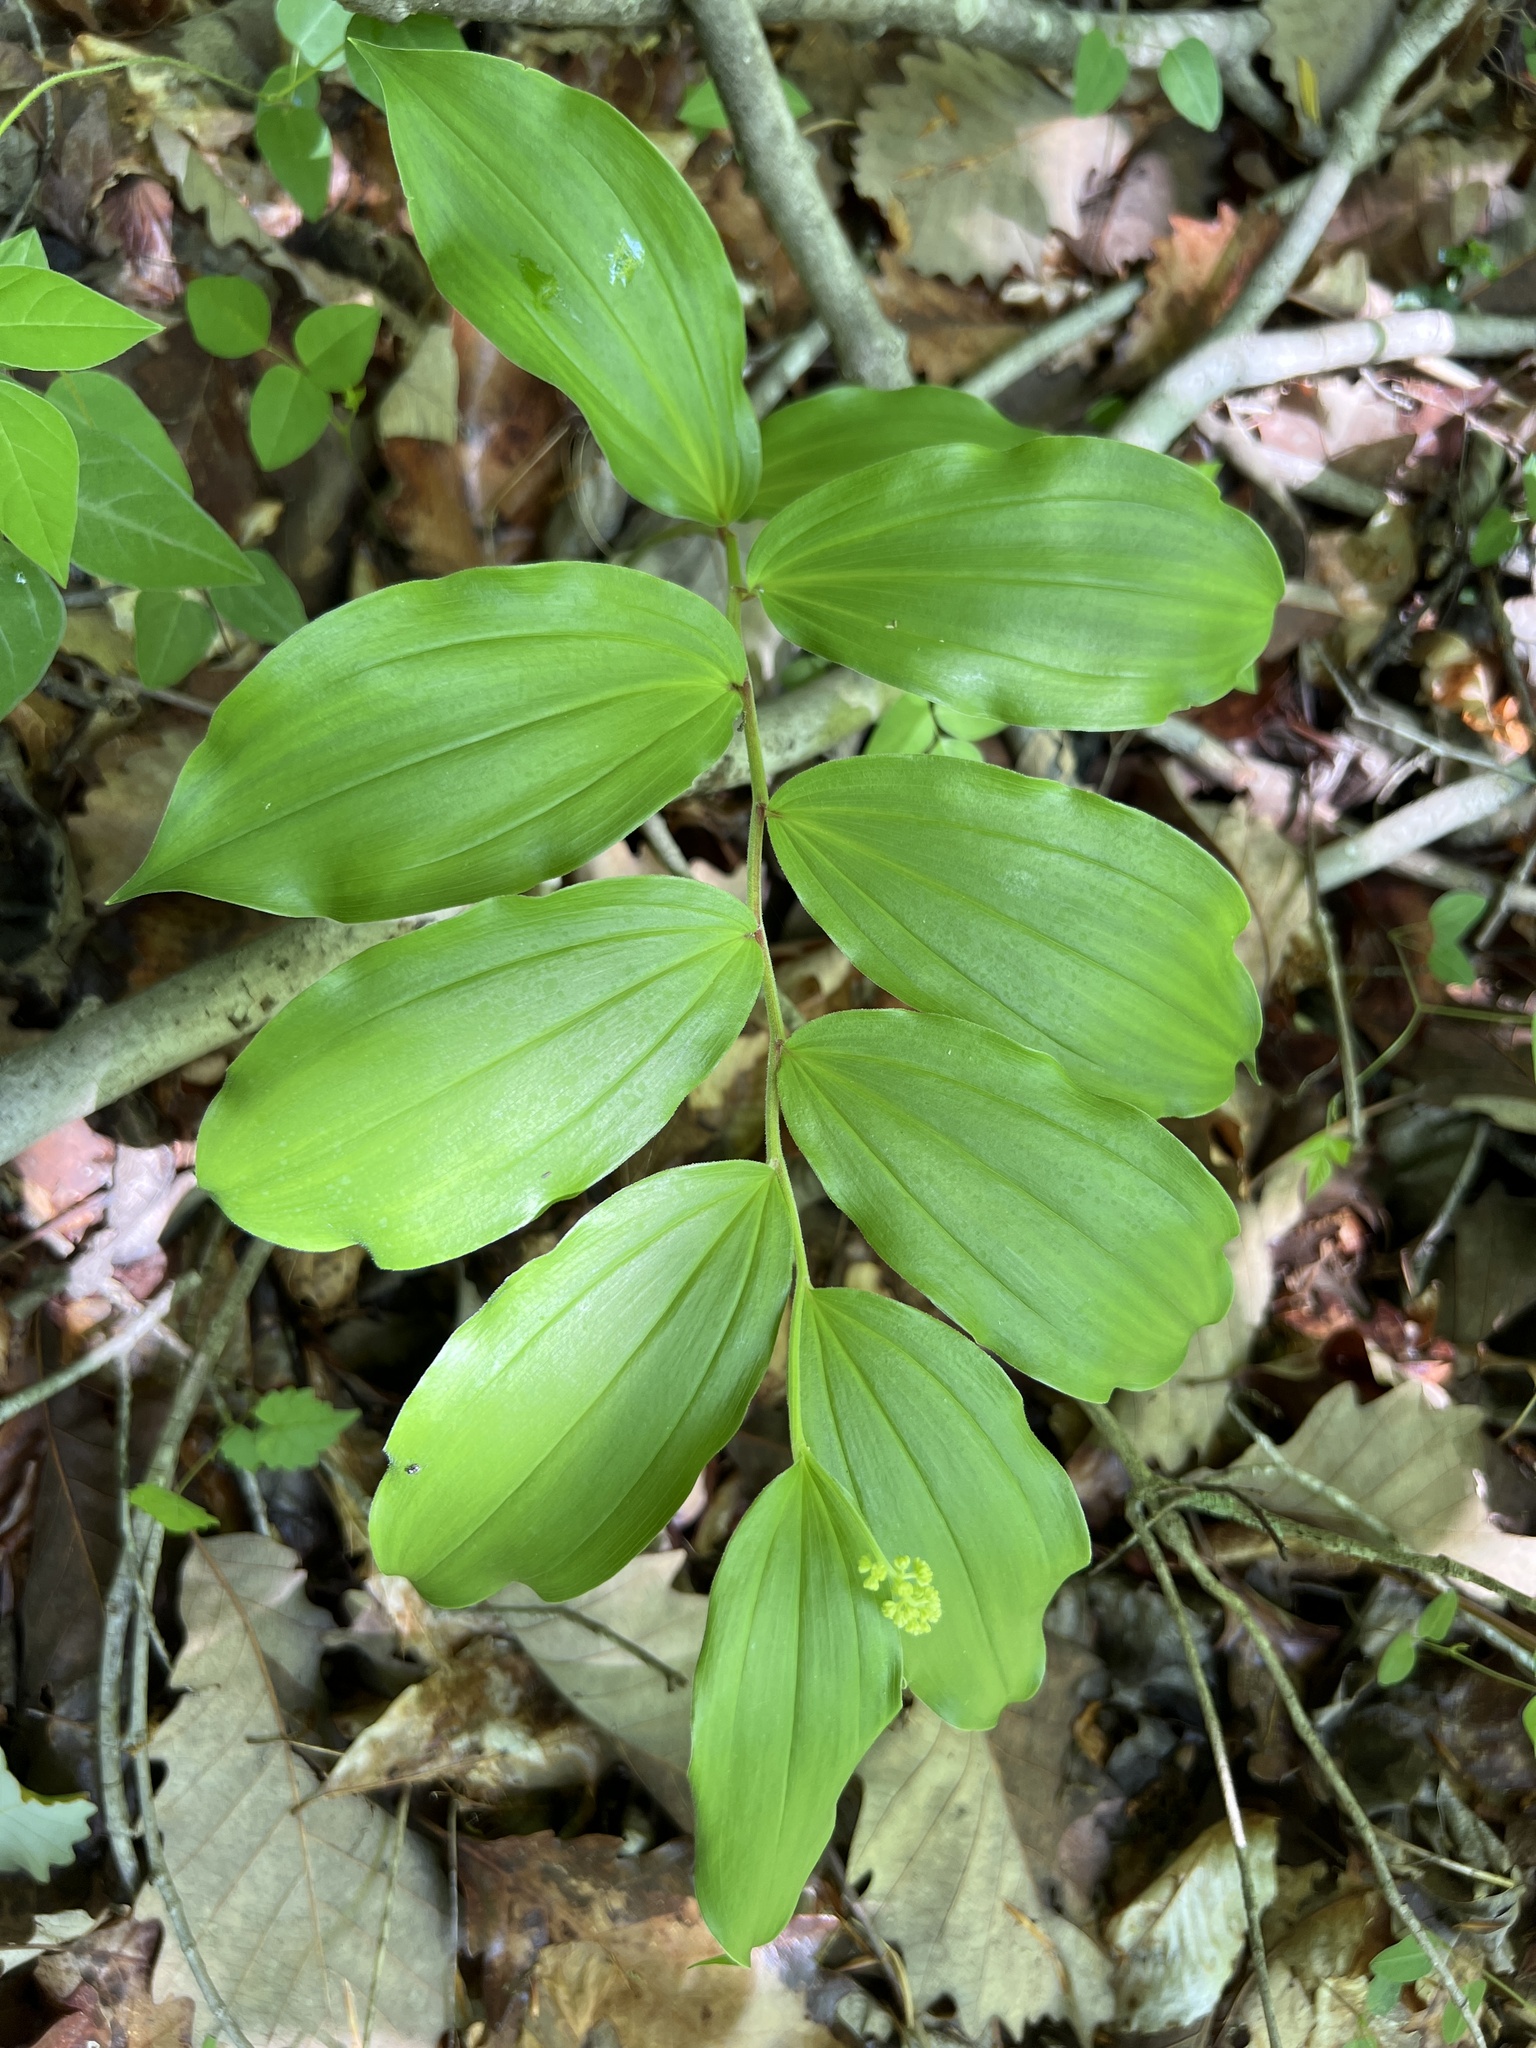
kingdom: Plantae
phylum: Tracheophyta
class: Liliopsida
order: Asparagales
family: Asparagaceae
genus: Maianthemum
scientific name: Maianthemum racemosum
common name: False spikenard
